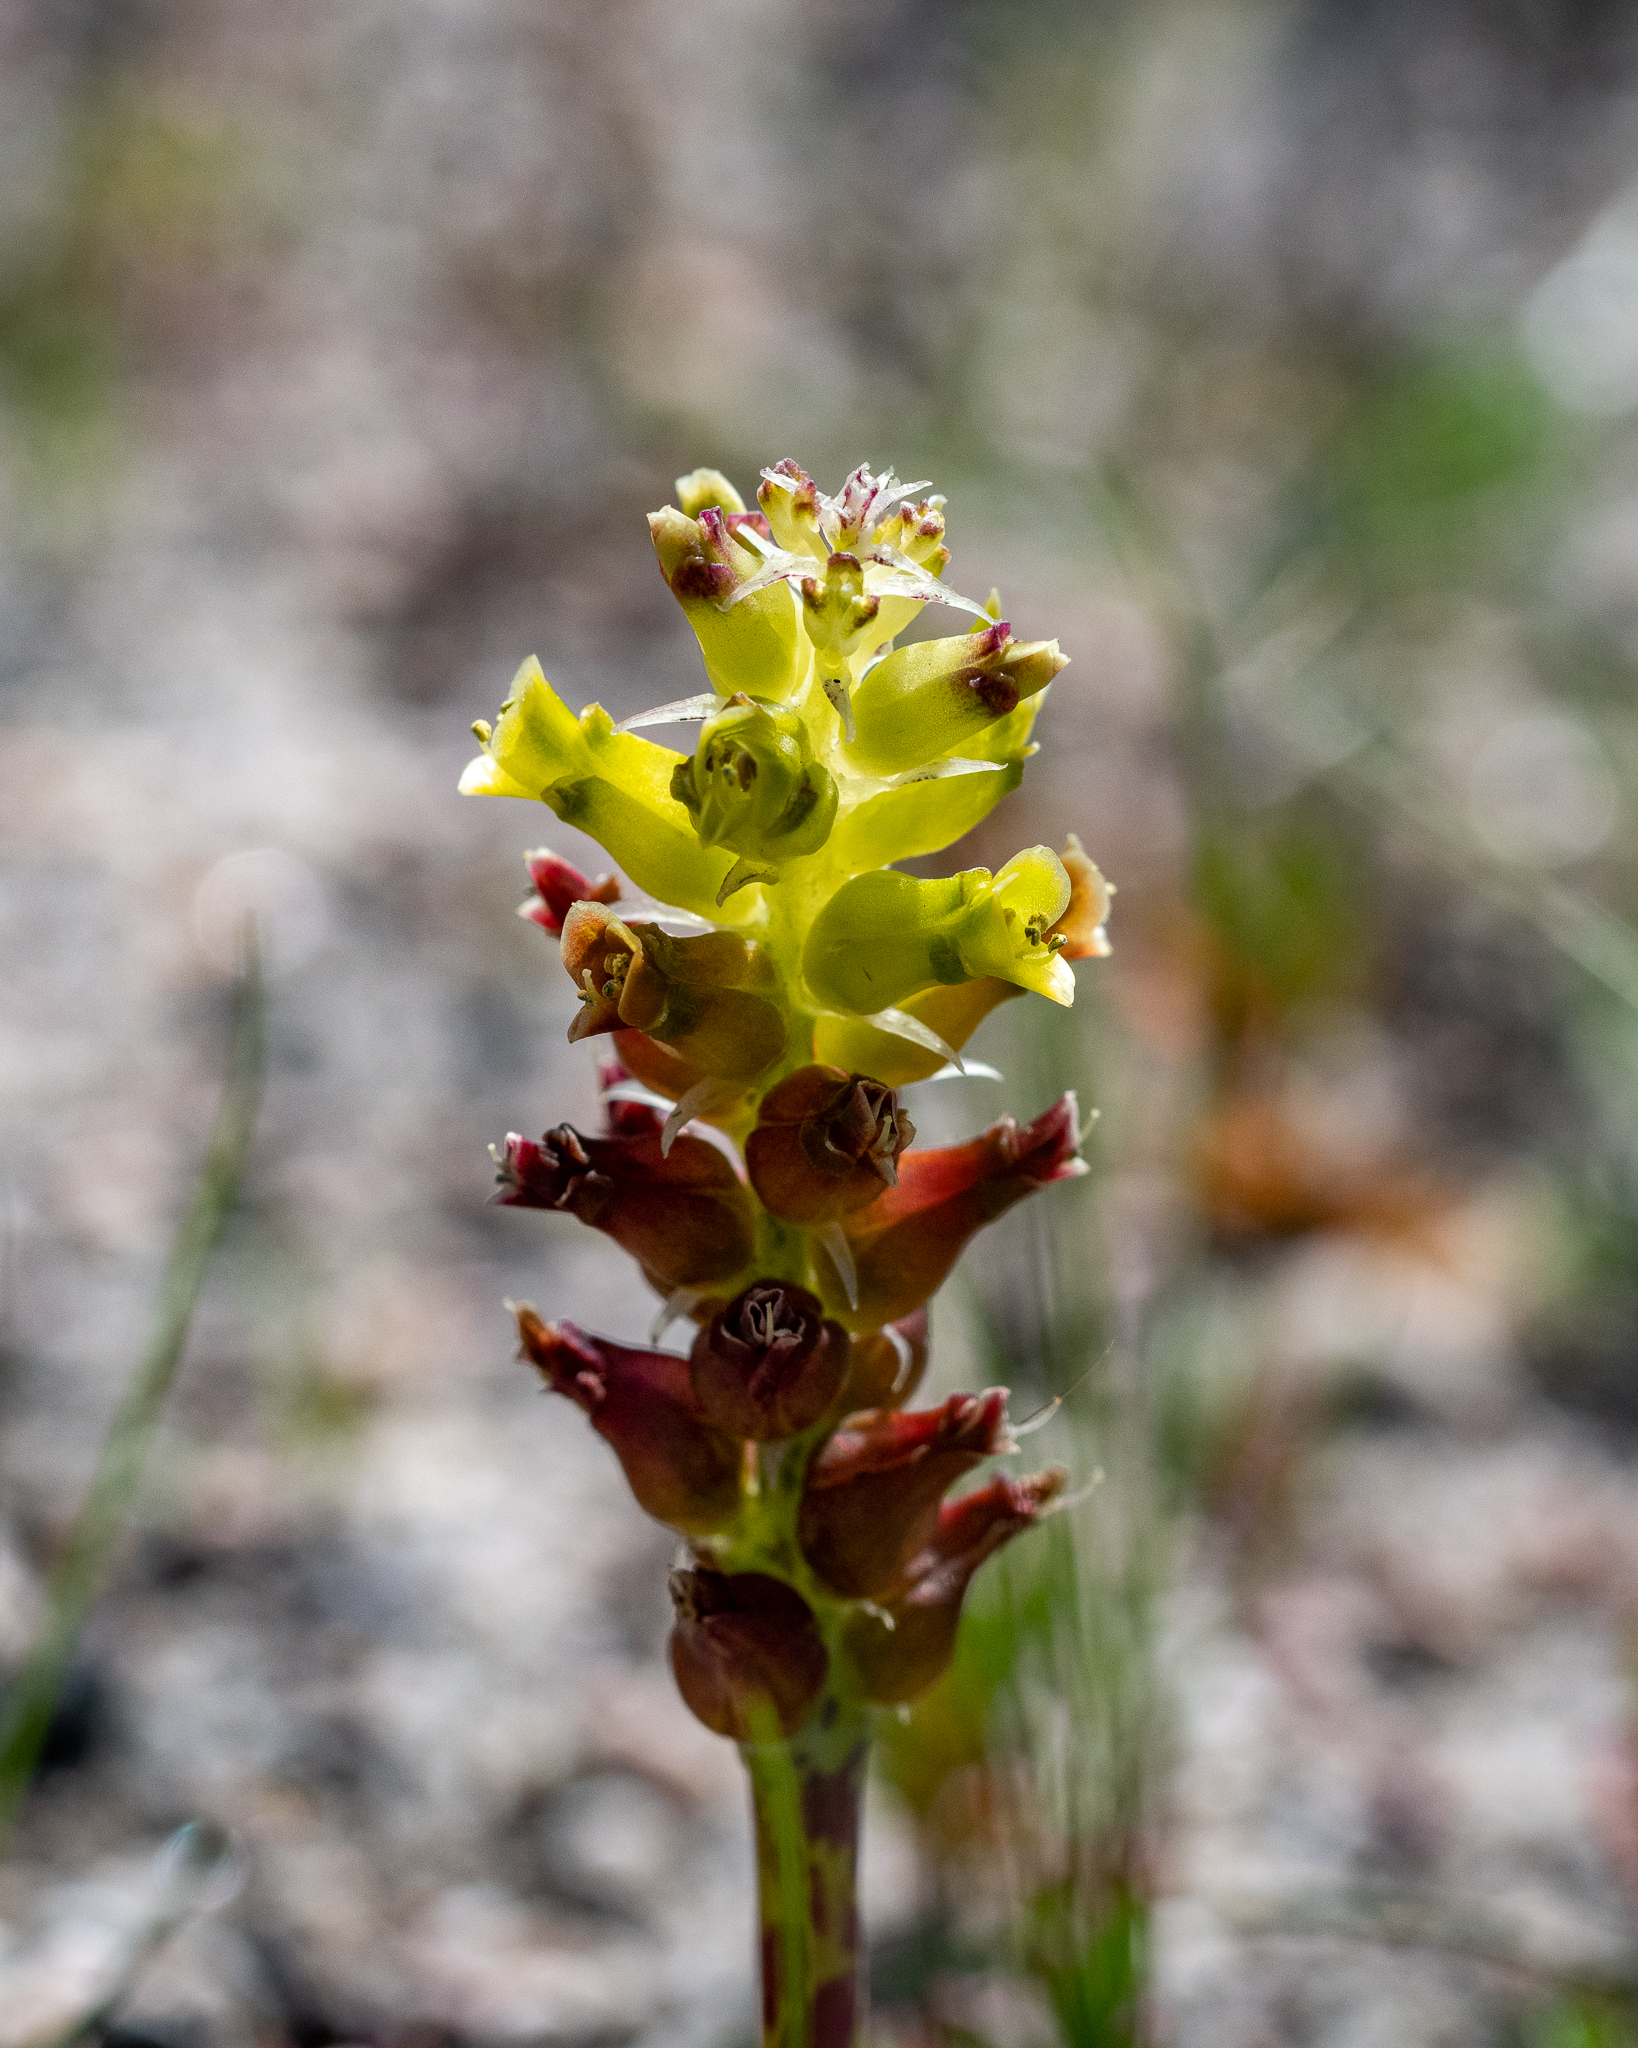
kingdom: Plantae
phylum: Tracheophyta
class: Liliopsida
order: Asparagales
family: Asparagaceae
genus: Lachenalia
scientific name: Lachenalia lutea
